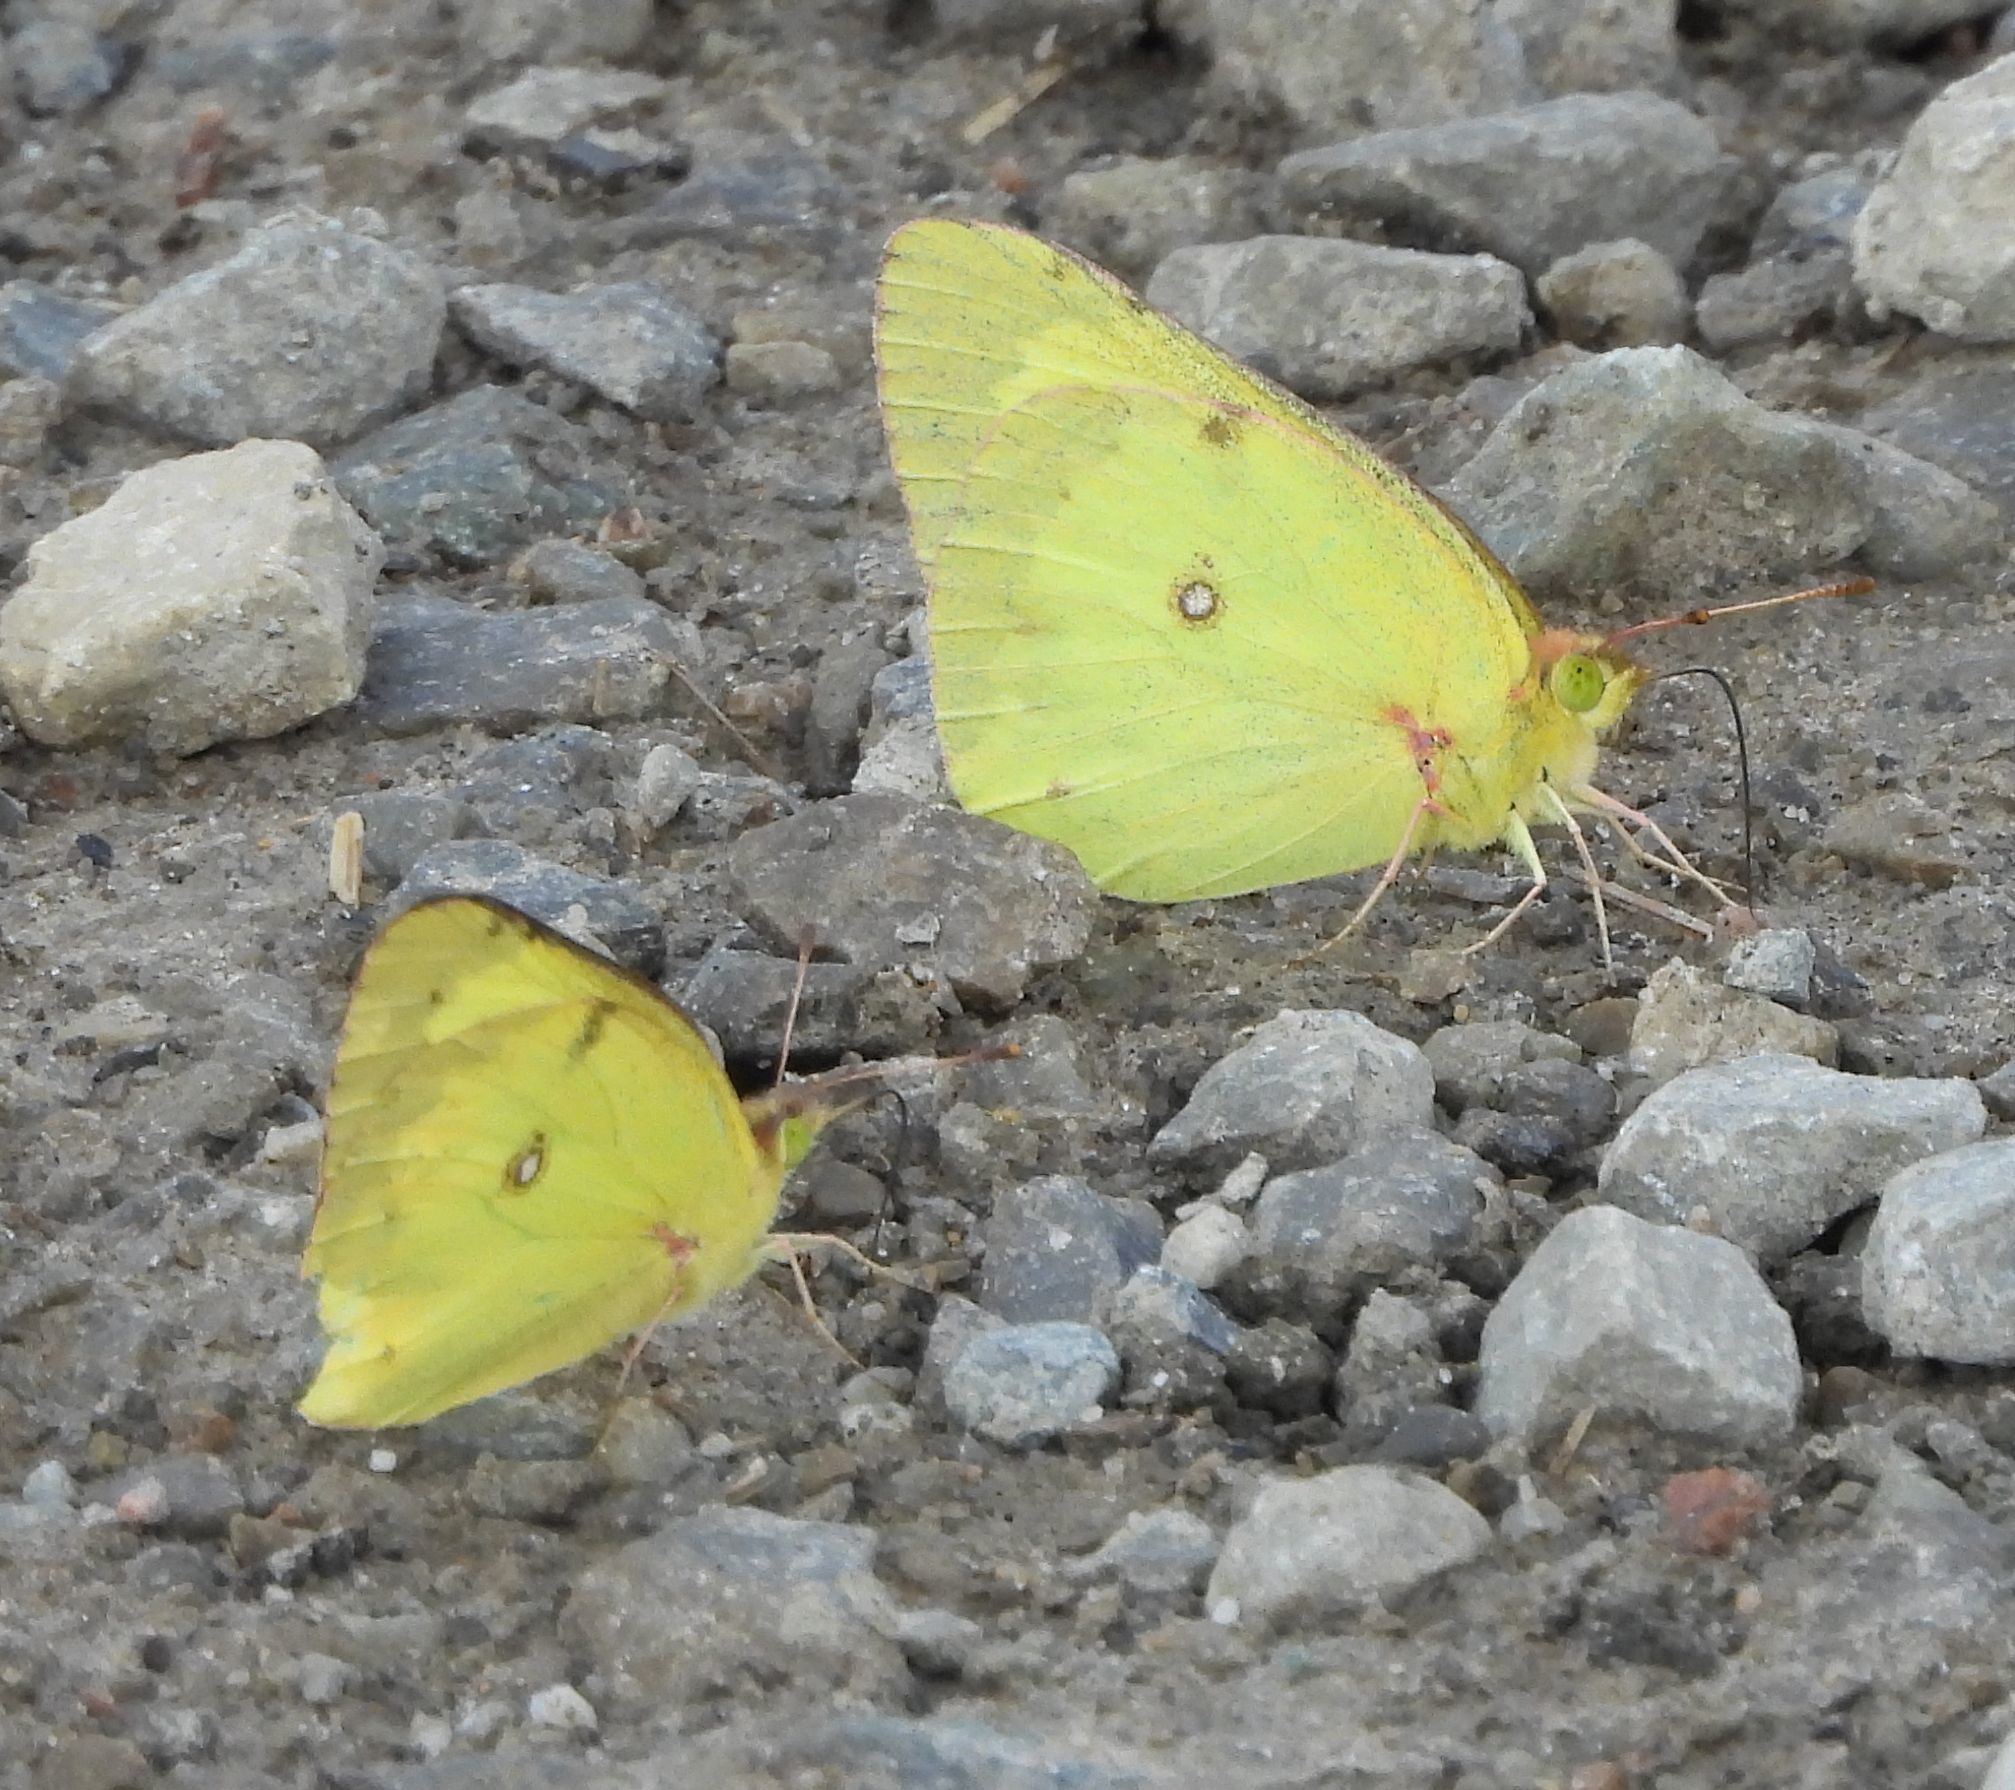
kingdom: Animalia
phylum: Arthropoda
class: Insecta
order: Lepidoptera
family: Pieridae
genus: Colias
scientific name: Colias philodice
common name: Clouded sulphur
